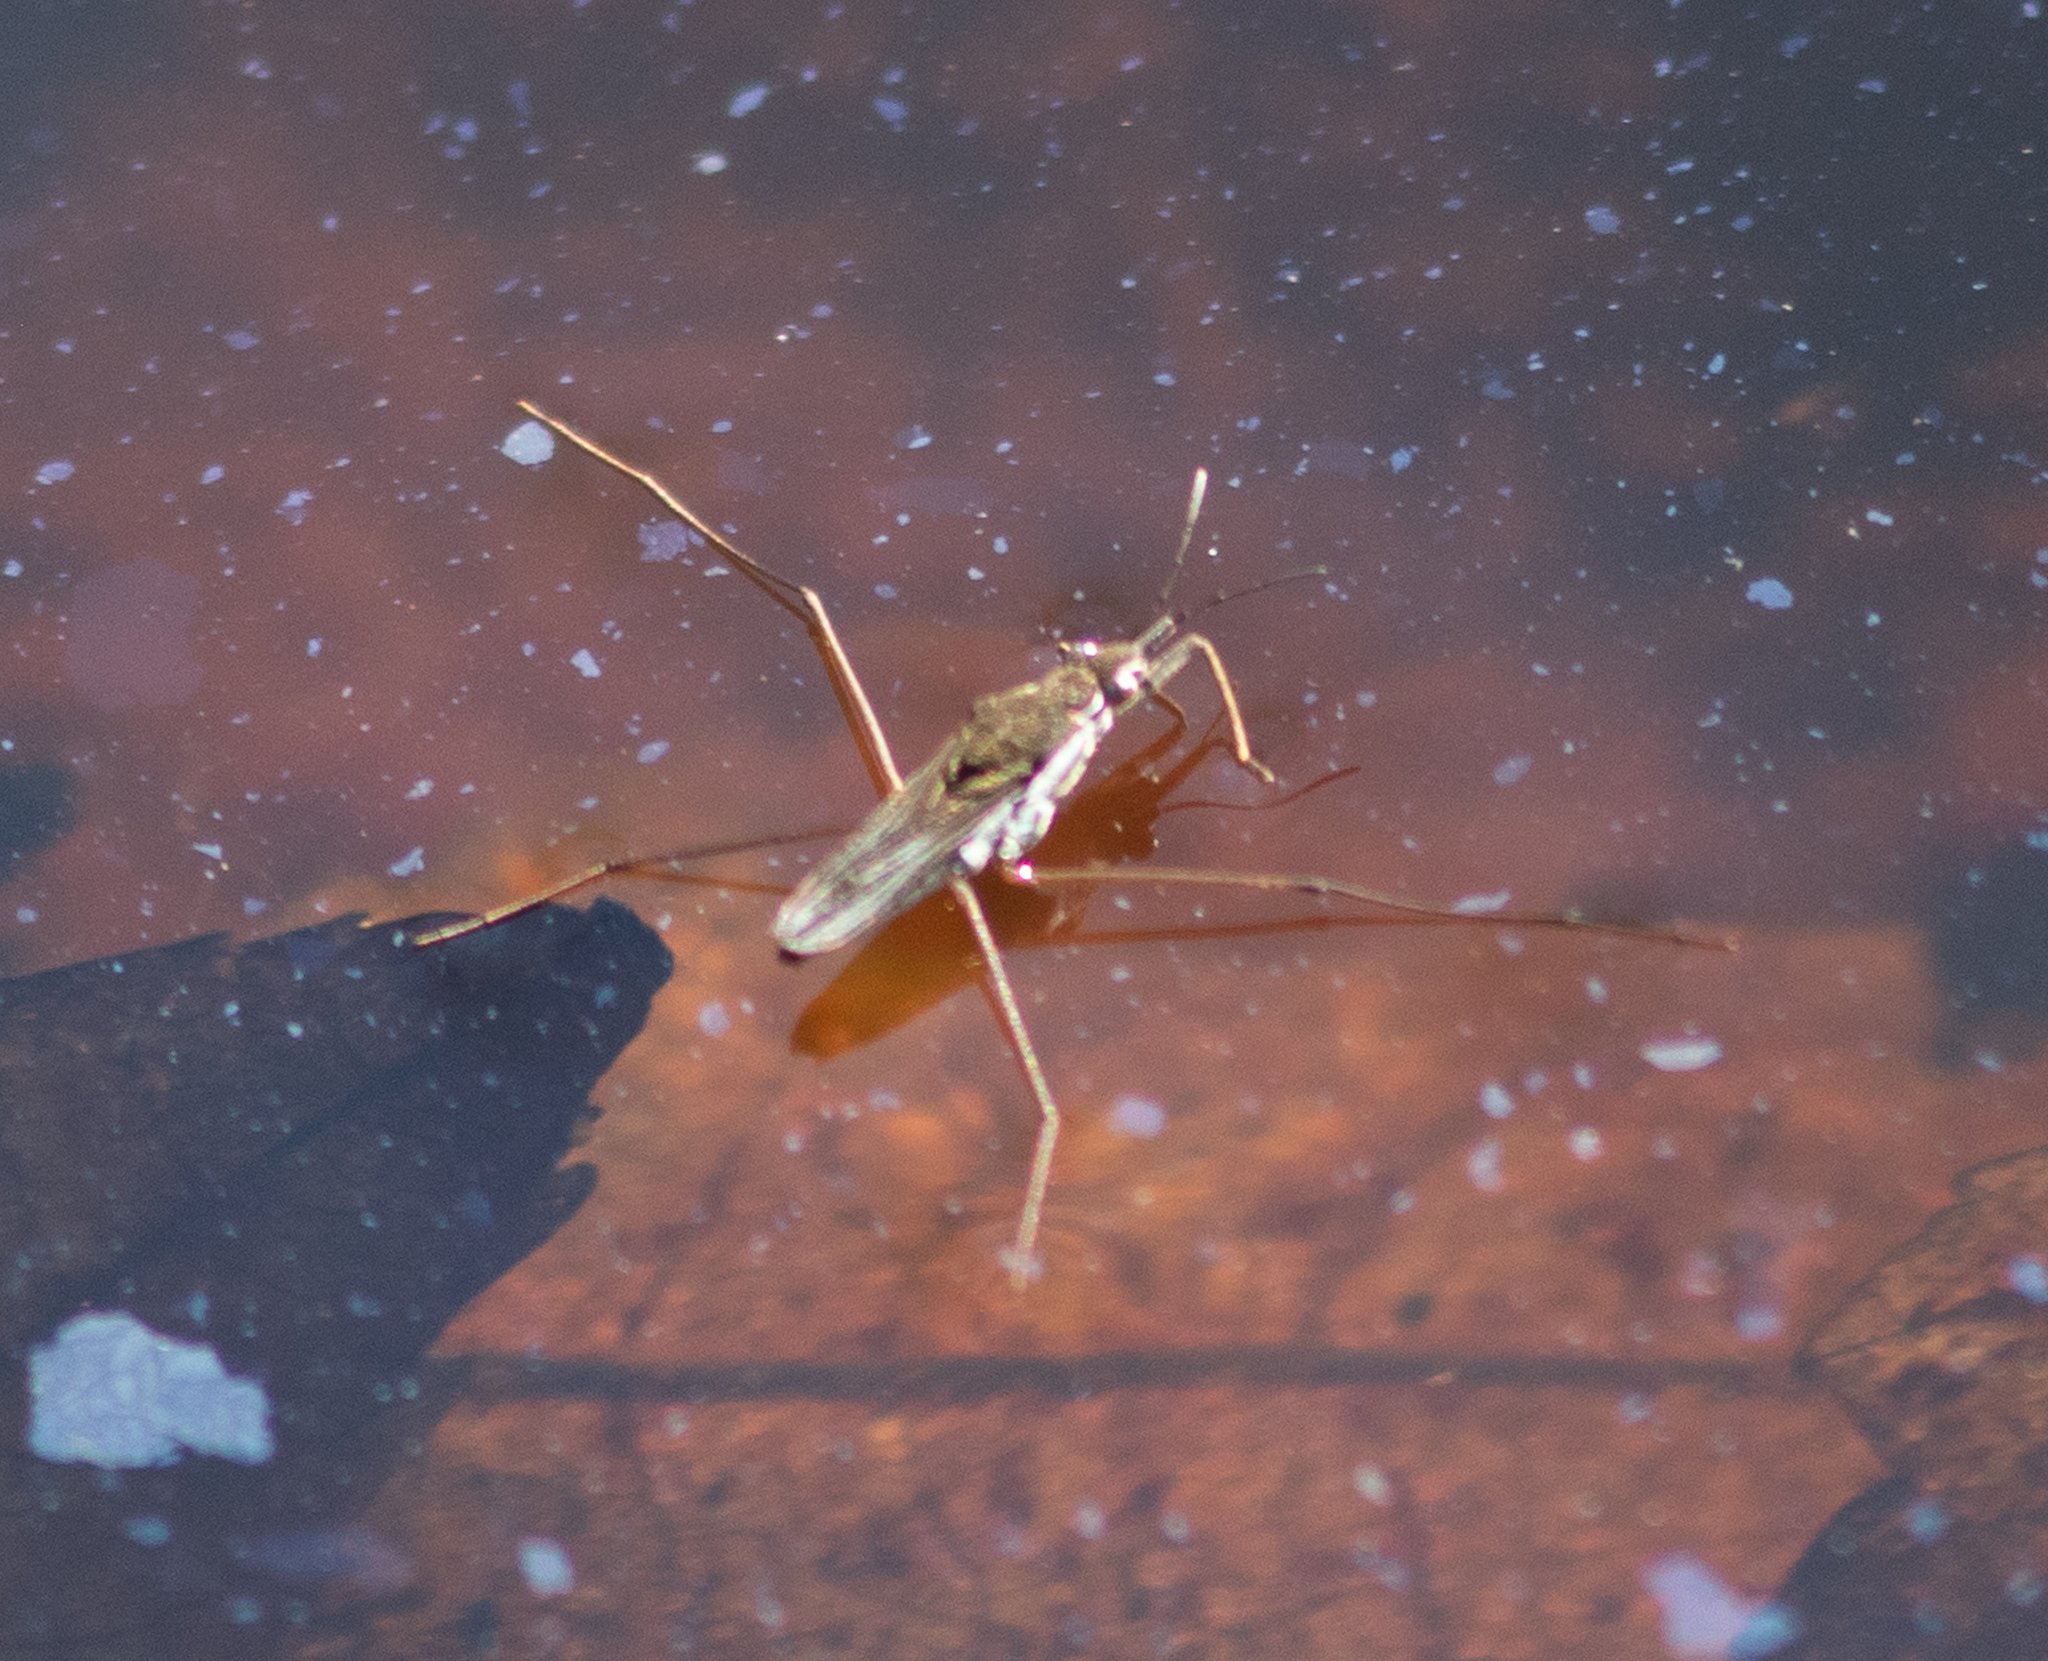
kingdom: Animalia
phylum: Arthropoda
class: Insecta
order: Hemiptera
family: Gerridae
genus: Gerris
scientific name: Gerris
